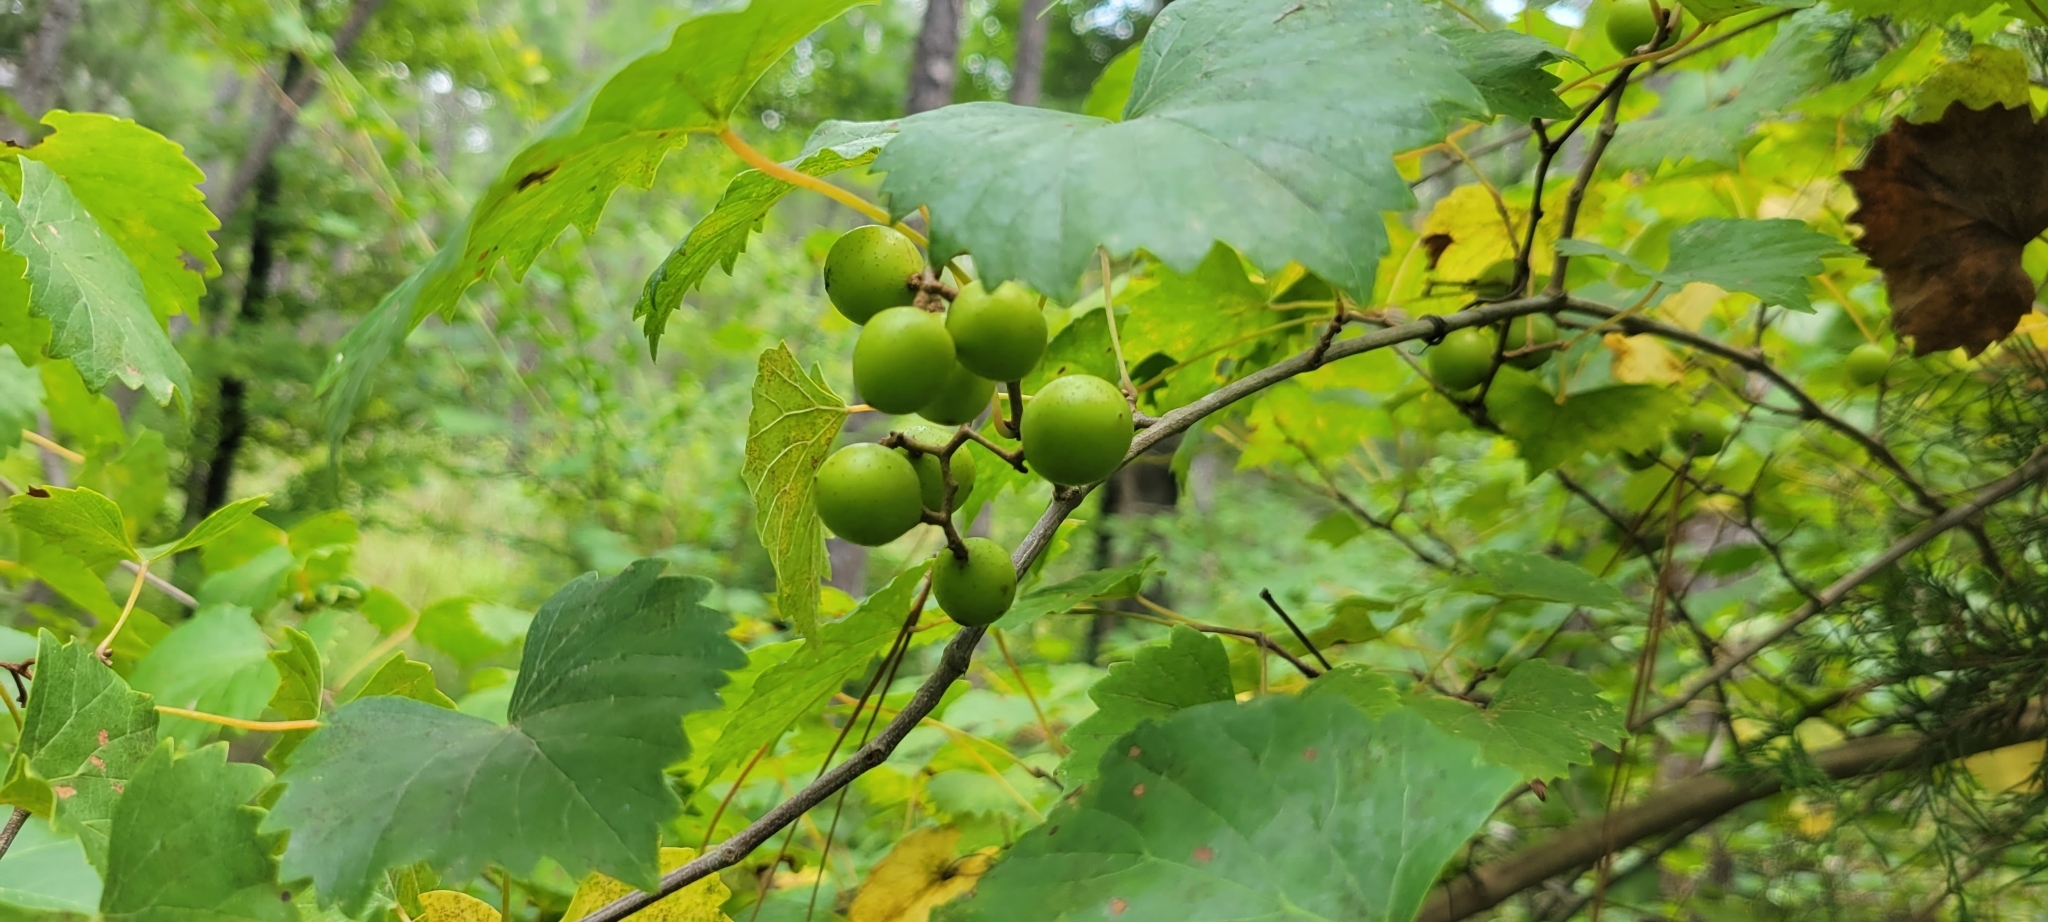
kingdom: Plantae
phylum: Tracheophyta
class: Magnoliopsida
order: Vitales
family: Vitaceae
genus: Vitis
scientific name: Vitis rotundifolia
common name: Muscadine grape
